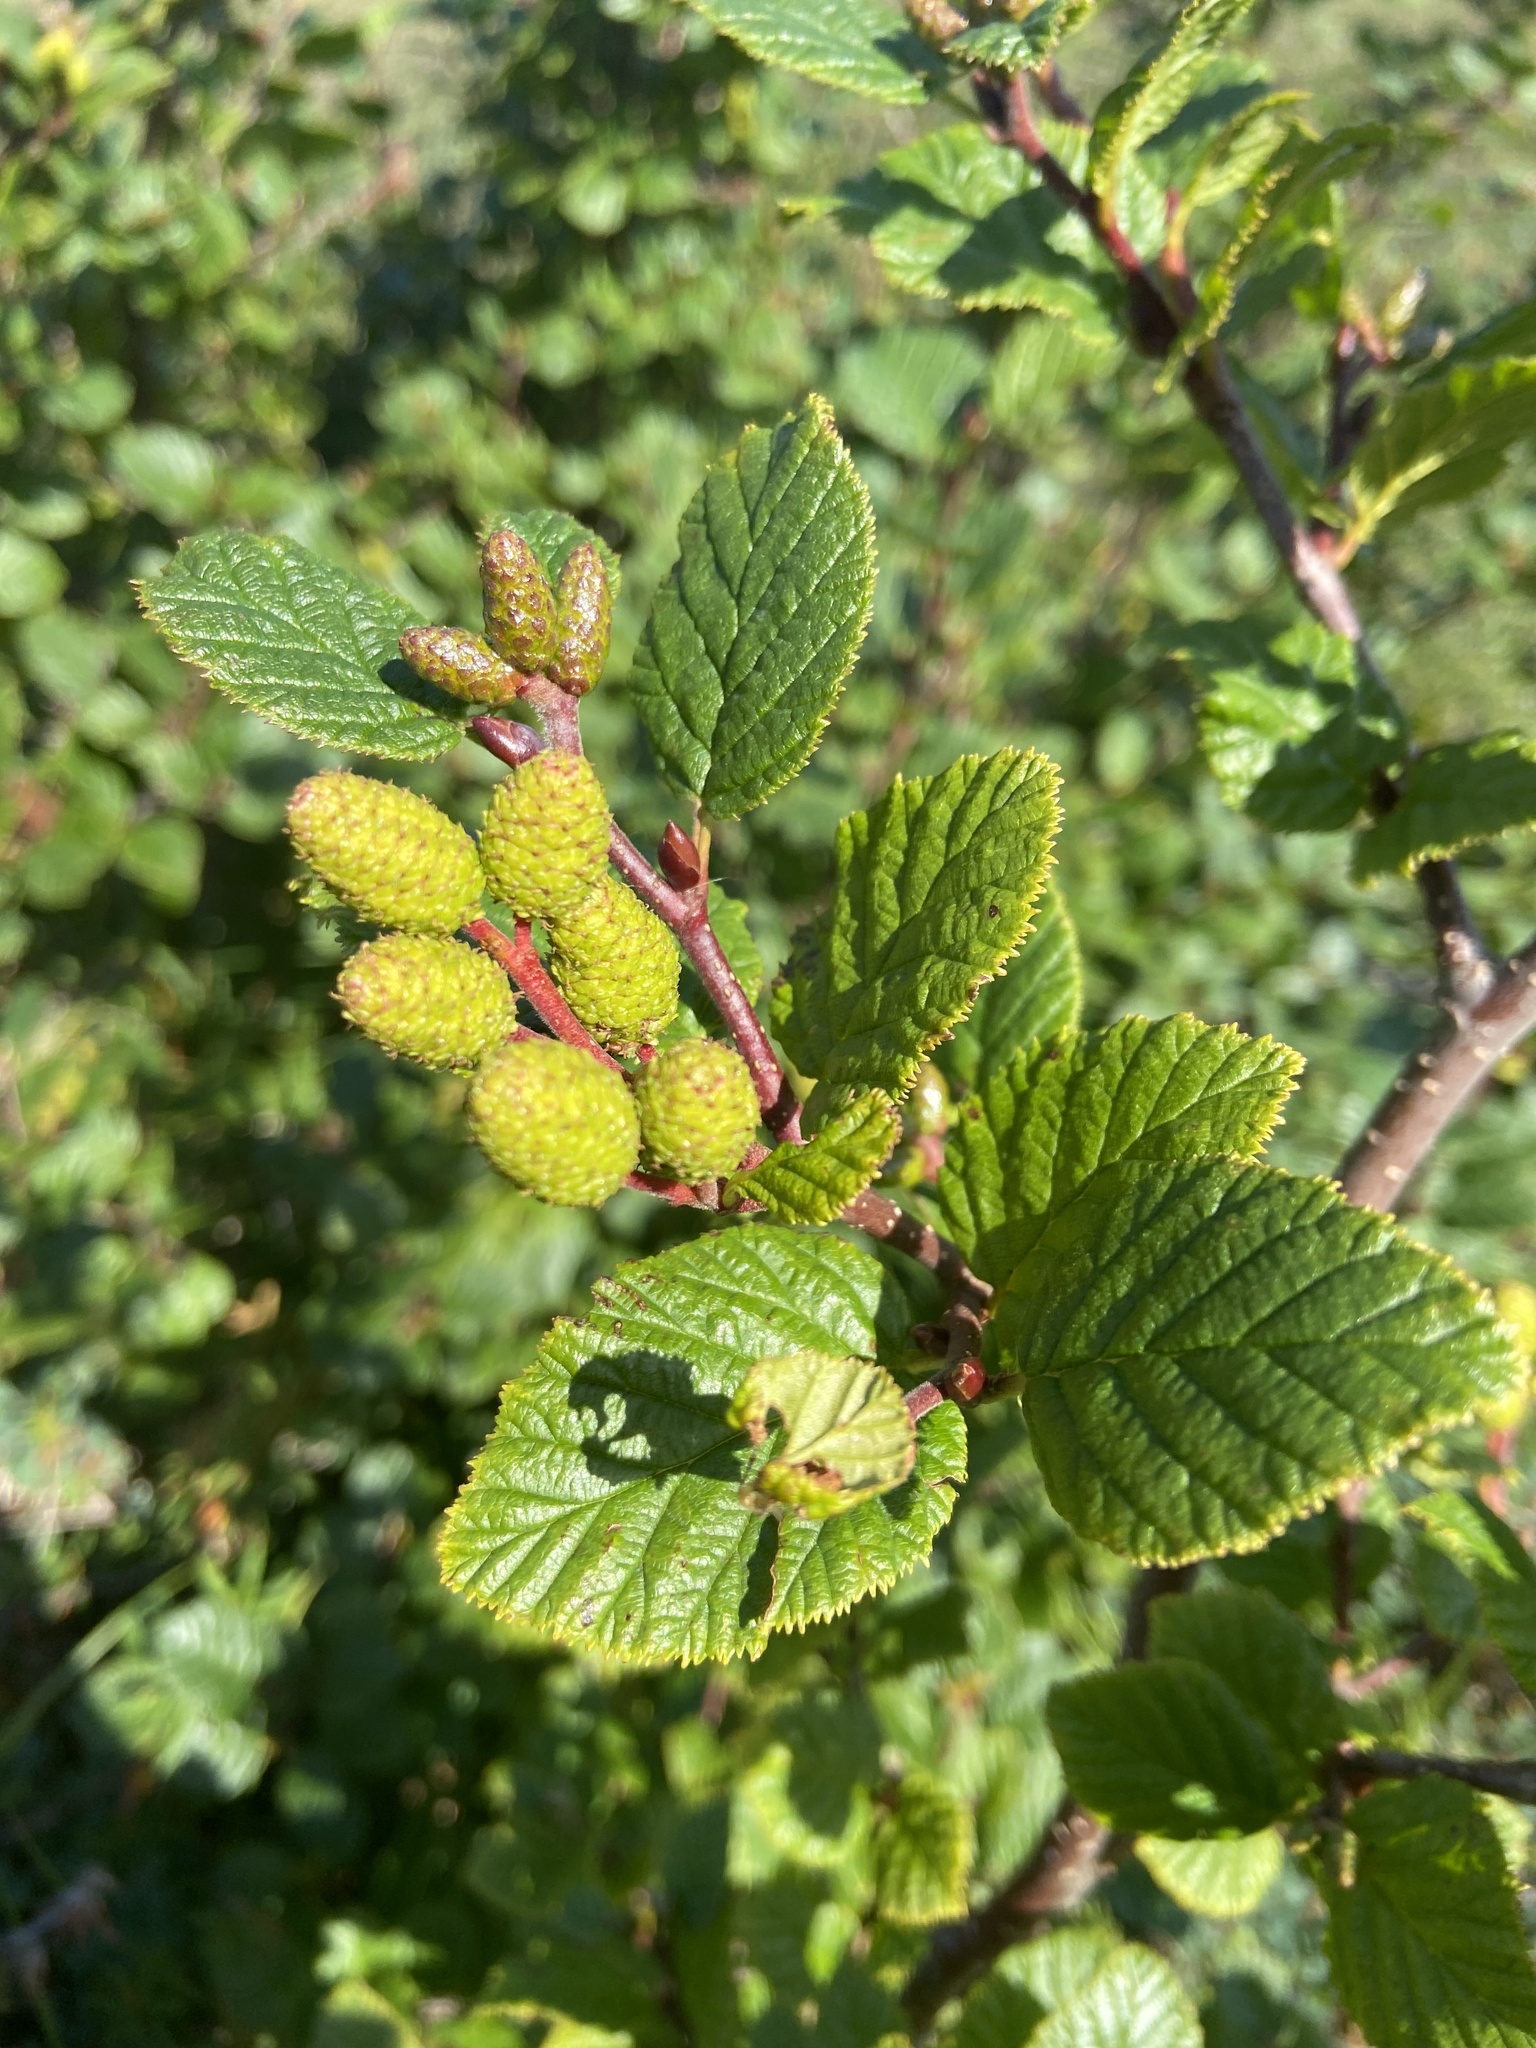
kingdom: Plantae
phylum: Tracheophyta
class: Magnoliopsida
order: Fagales
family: Betulaceae
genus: Alnus
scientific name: Alnus alnobetula
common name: Green alder
